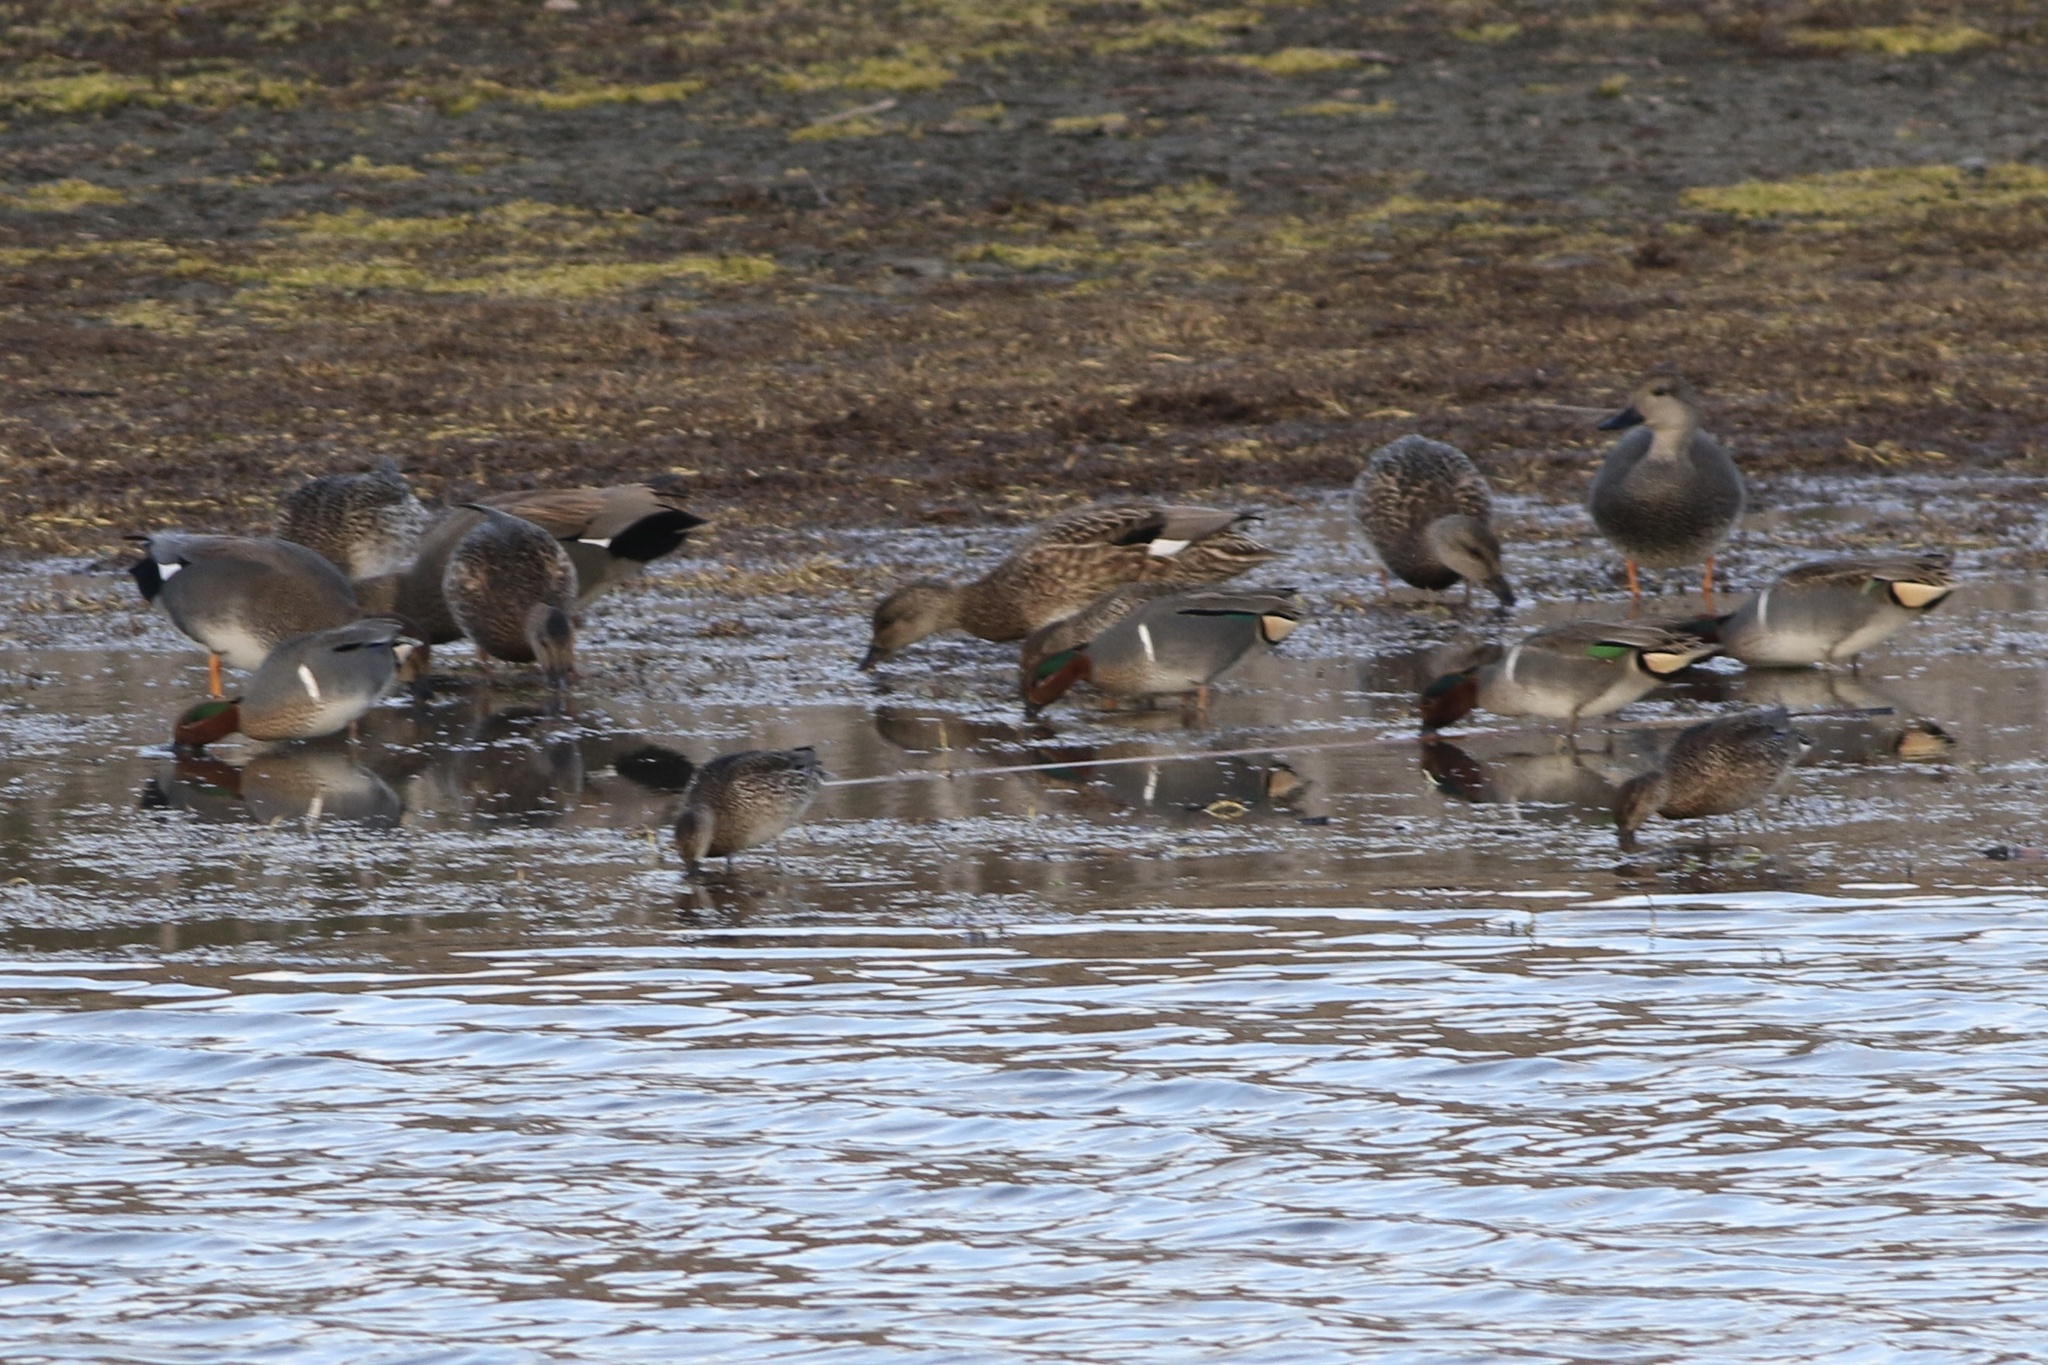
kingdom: Animalia
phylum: Chordata
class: Aves
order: Anseriformes
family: Anatidae
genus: Anas
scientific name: Anas crecca
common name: Eurasian teal
